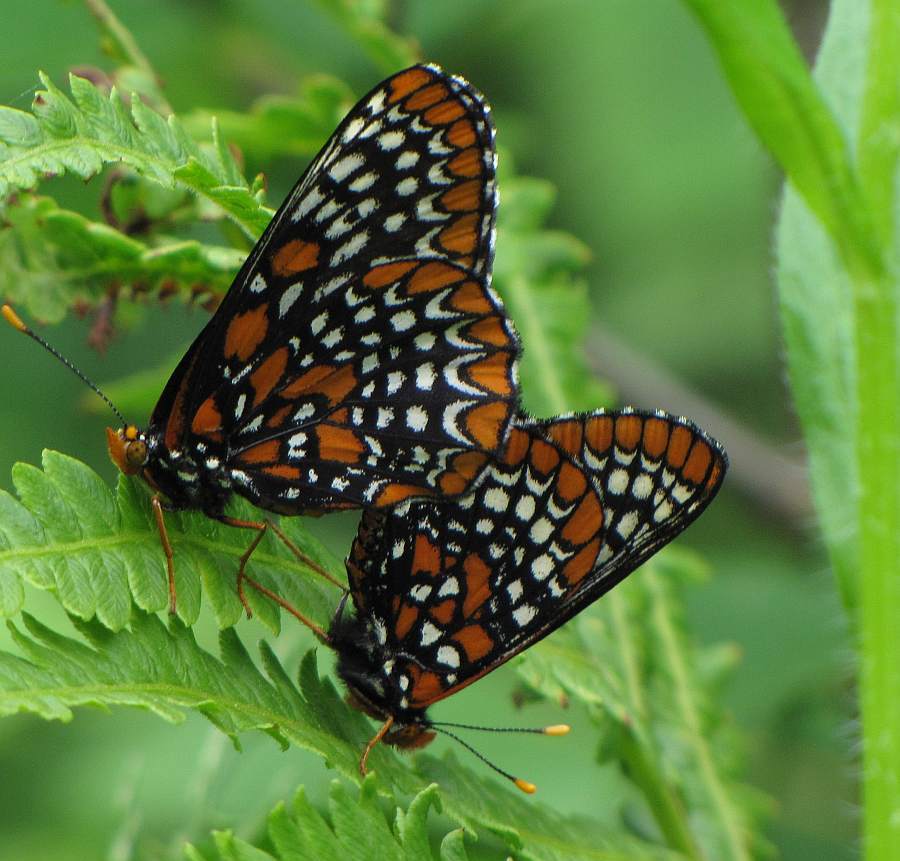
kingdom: Animalia
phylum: Arthropoda
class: Insecta
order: Lepidoptera
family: Nymphalidae
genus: Euphydryas
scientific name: Euphydryas phaeton
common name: Baltimore checkerspot
